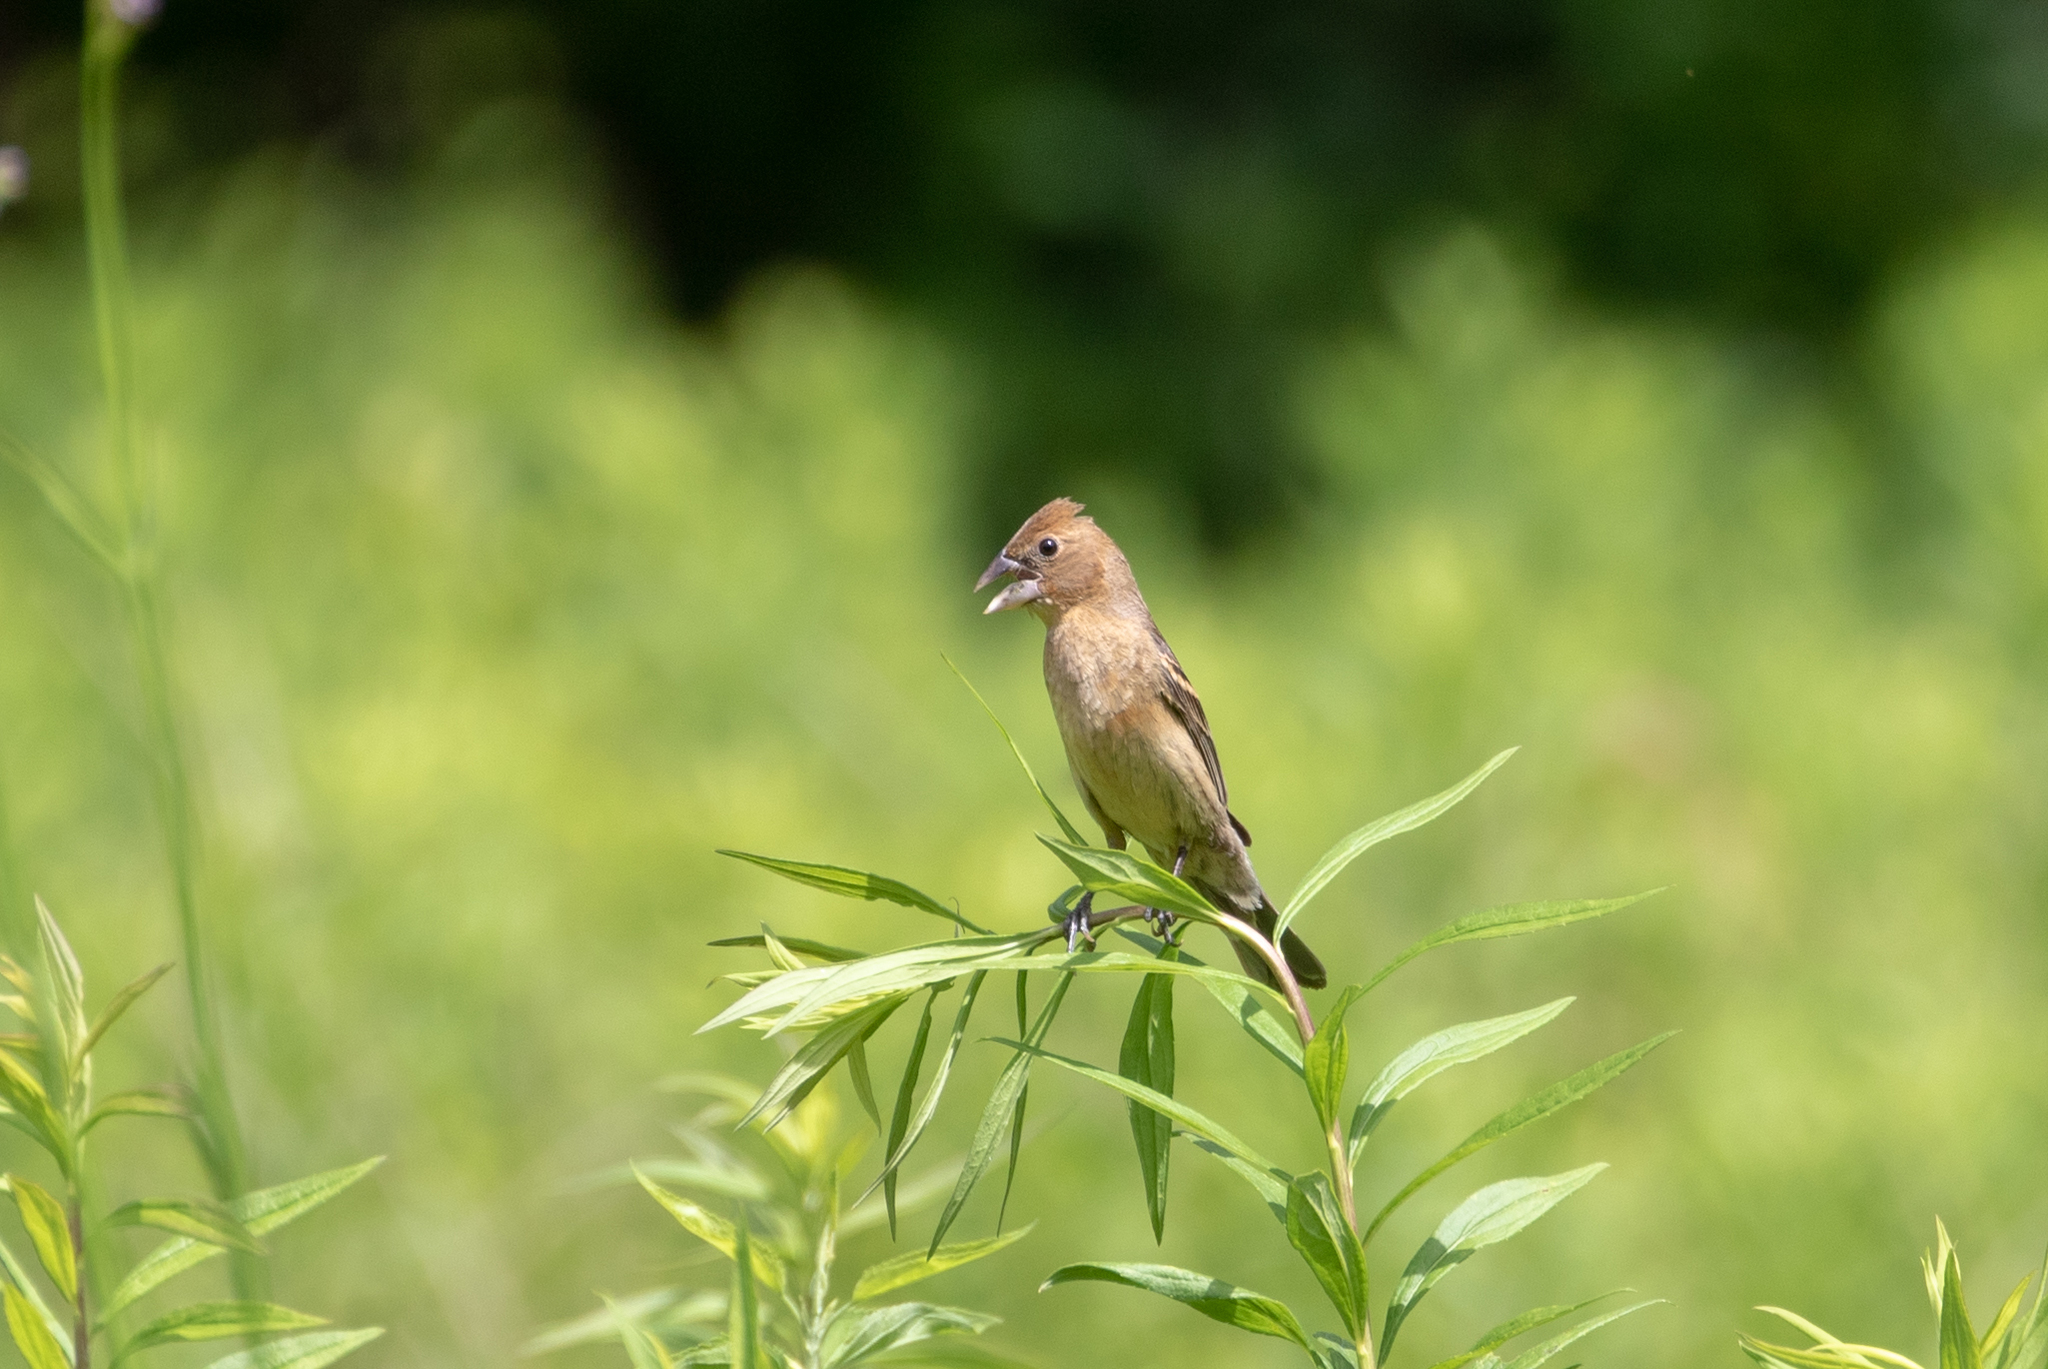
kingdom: Animalia
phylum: Chordata
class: Aves
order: Passeriformes
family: Cardinalidae
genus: Passerina
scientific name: Passerina caerulea
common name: Blue grosbeak
